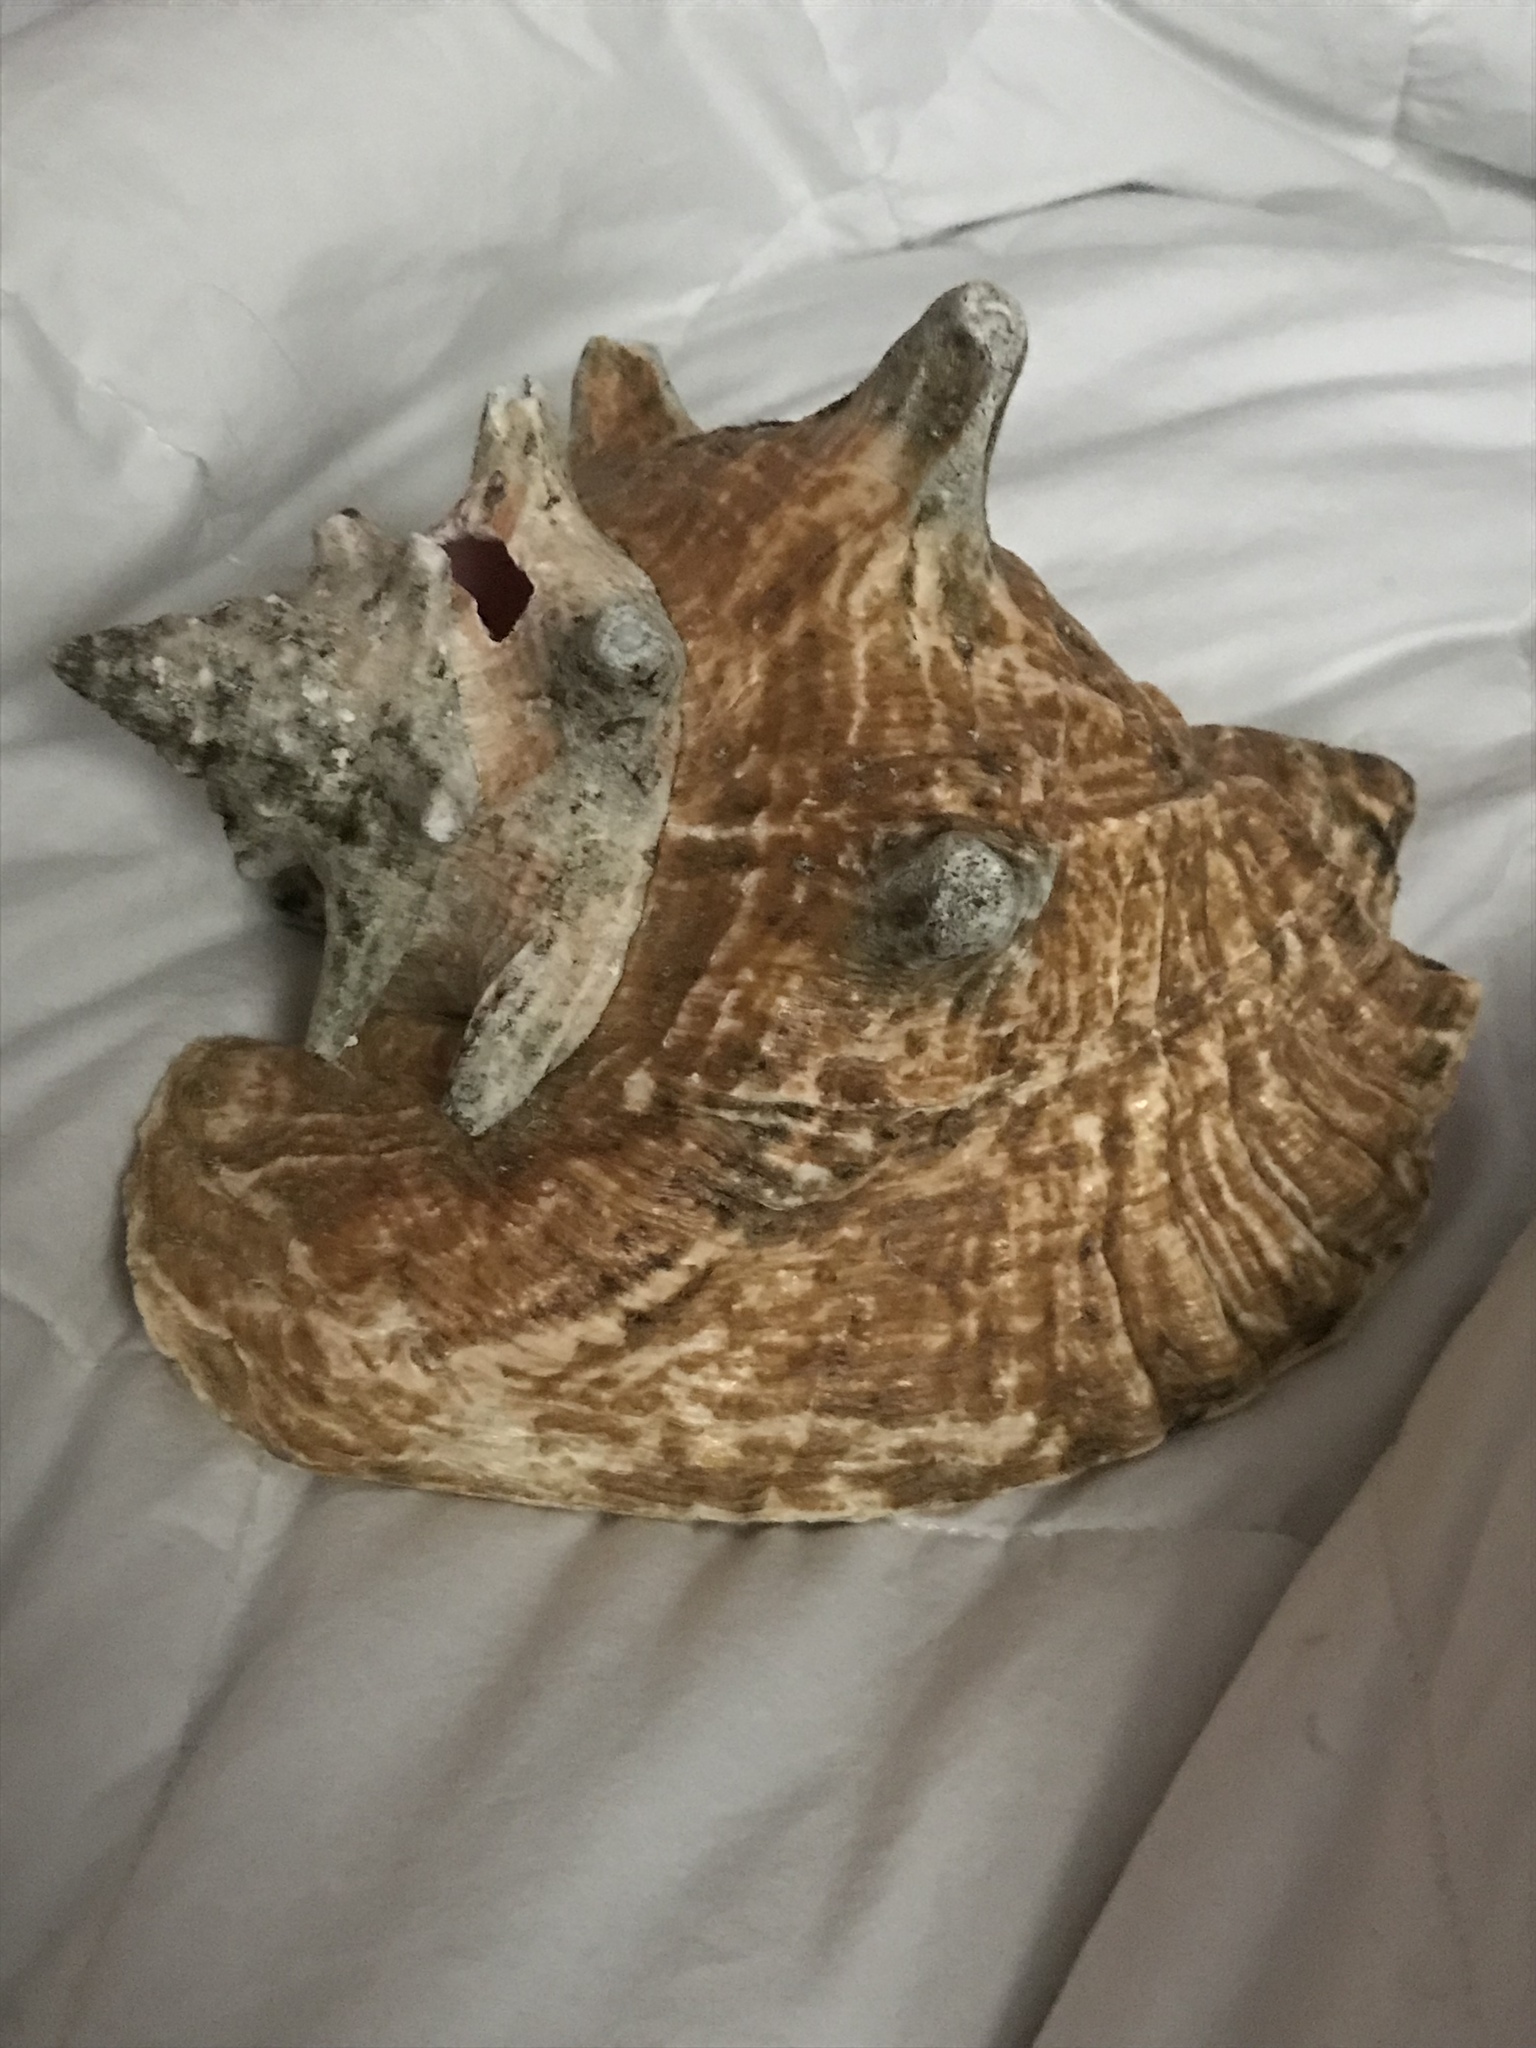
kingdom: Animalia
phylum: Mollusca
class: Gastropoda
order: Littorinimorpha
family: Strombidae
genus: Aliger
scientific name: Aliger gigas
